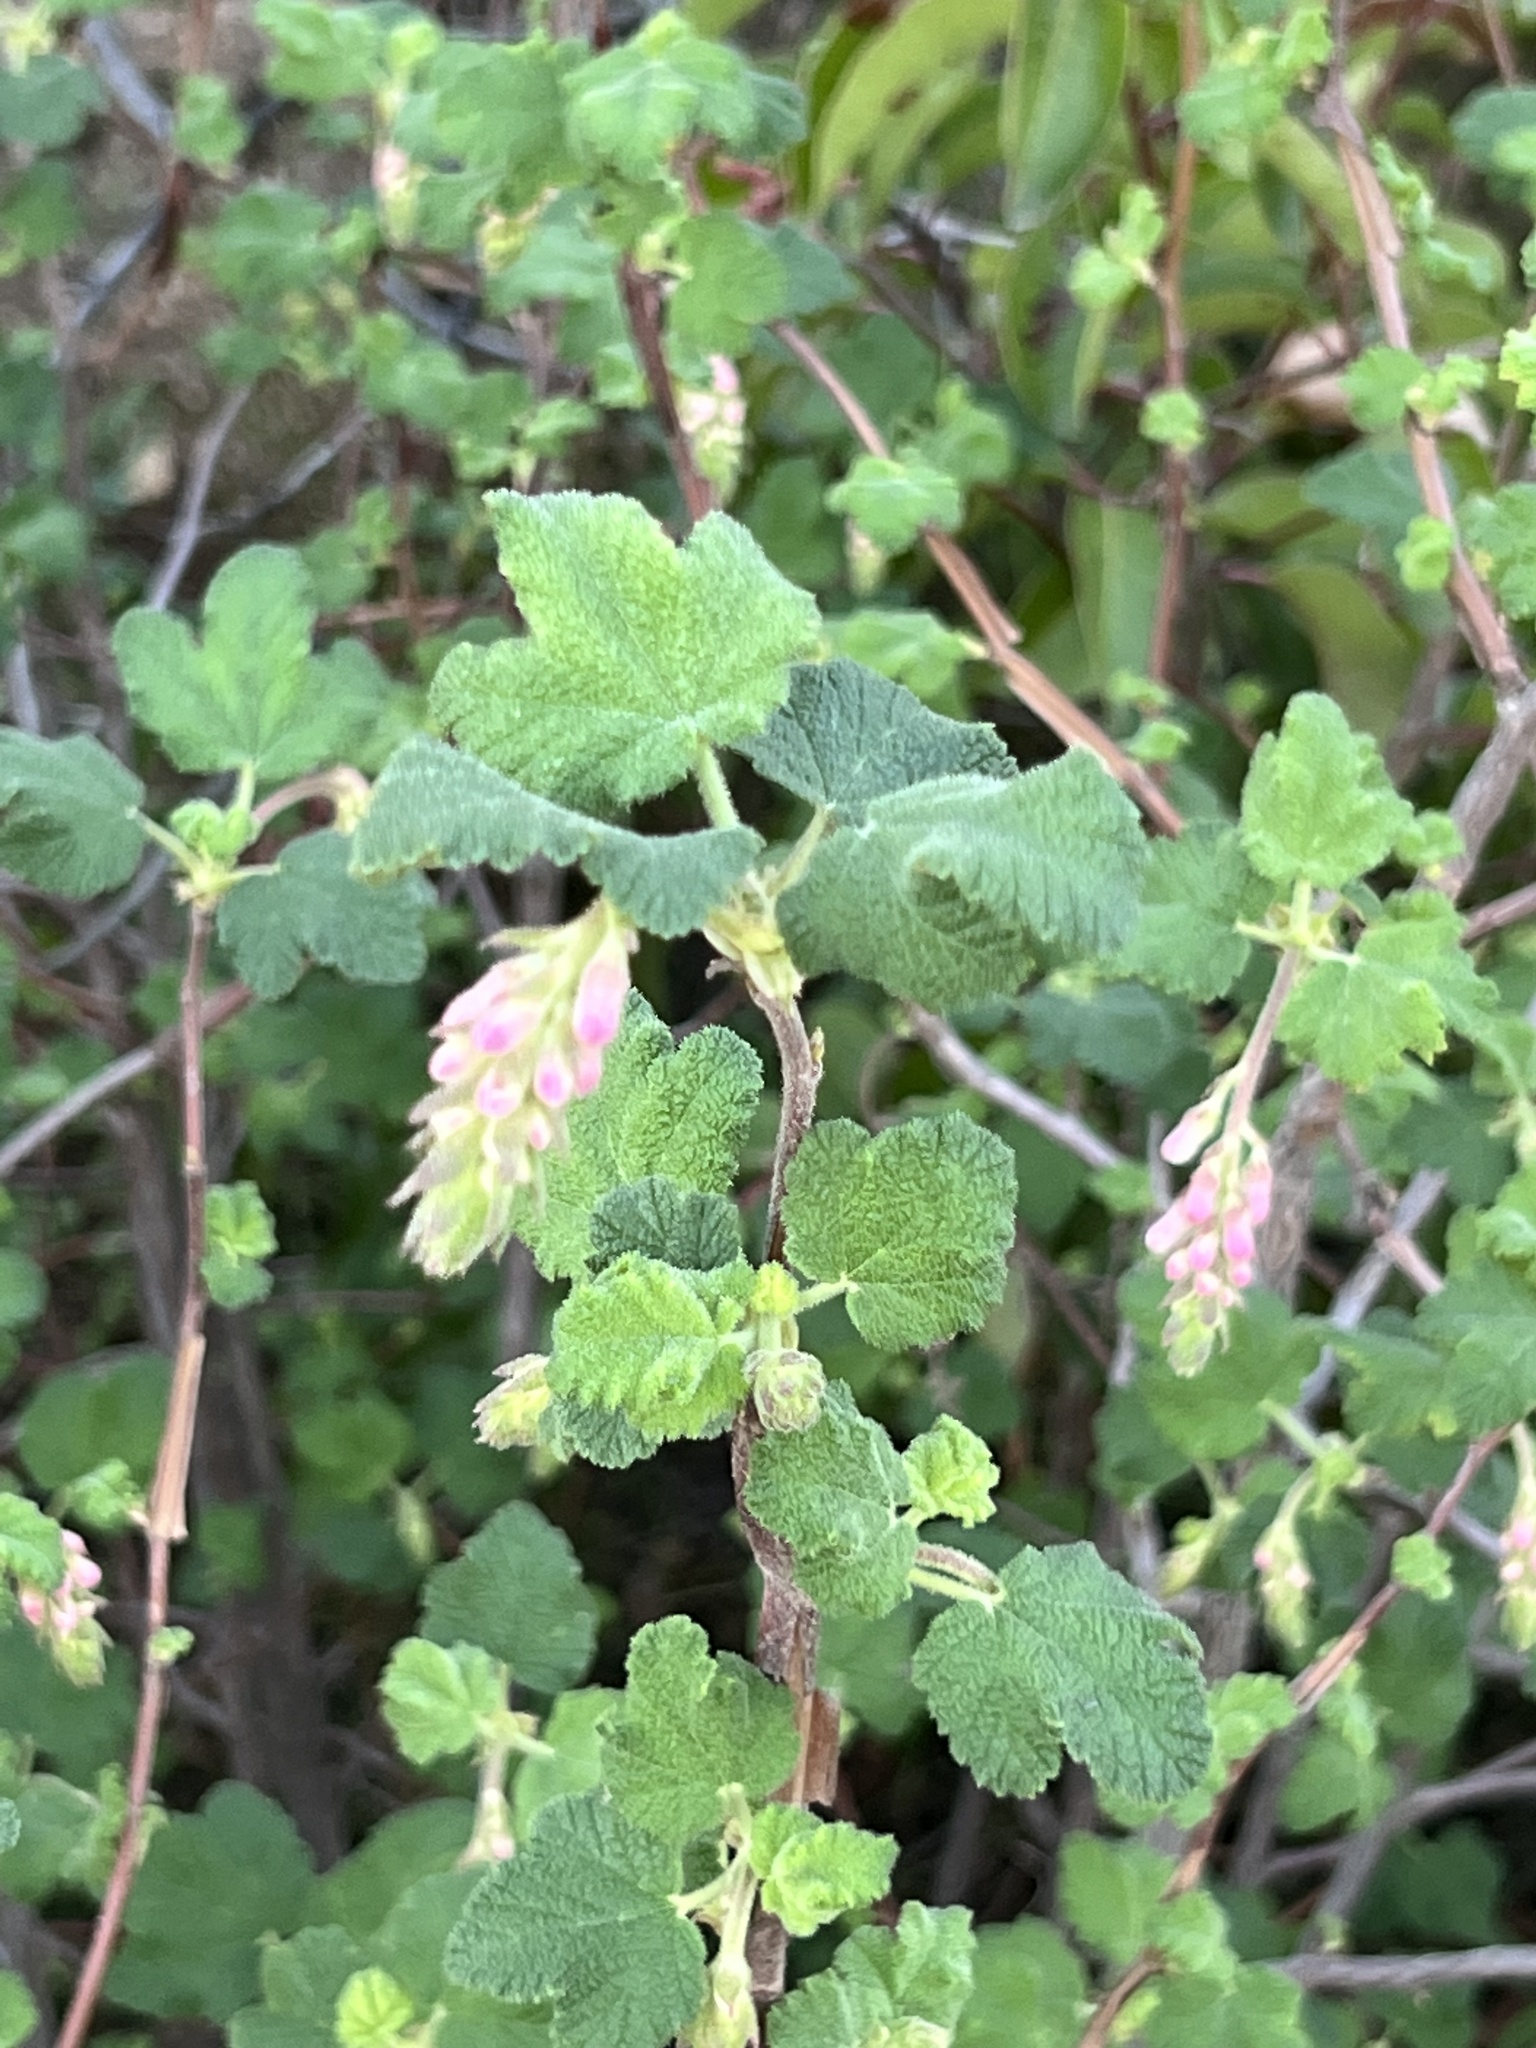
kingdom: Plantae
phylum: Tracheophyta
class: Magnoliopsida
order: Saxifragales
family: Grossulariaceae
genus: Ribes
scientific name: Ribes malvaceum
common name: Chaparral currant
